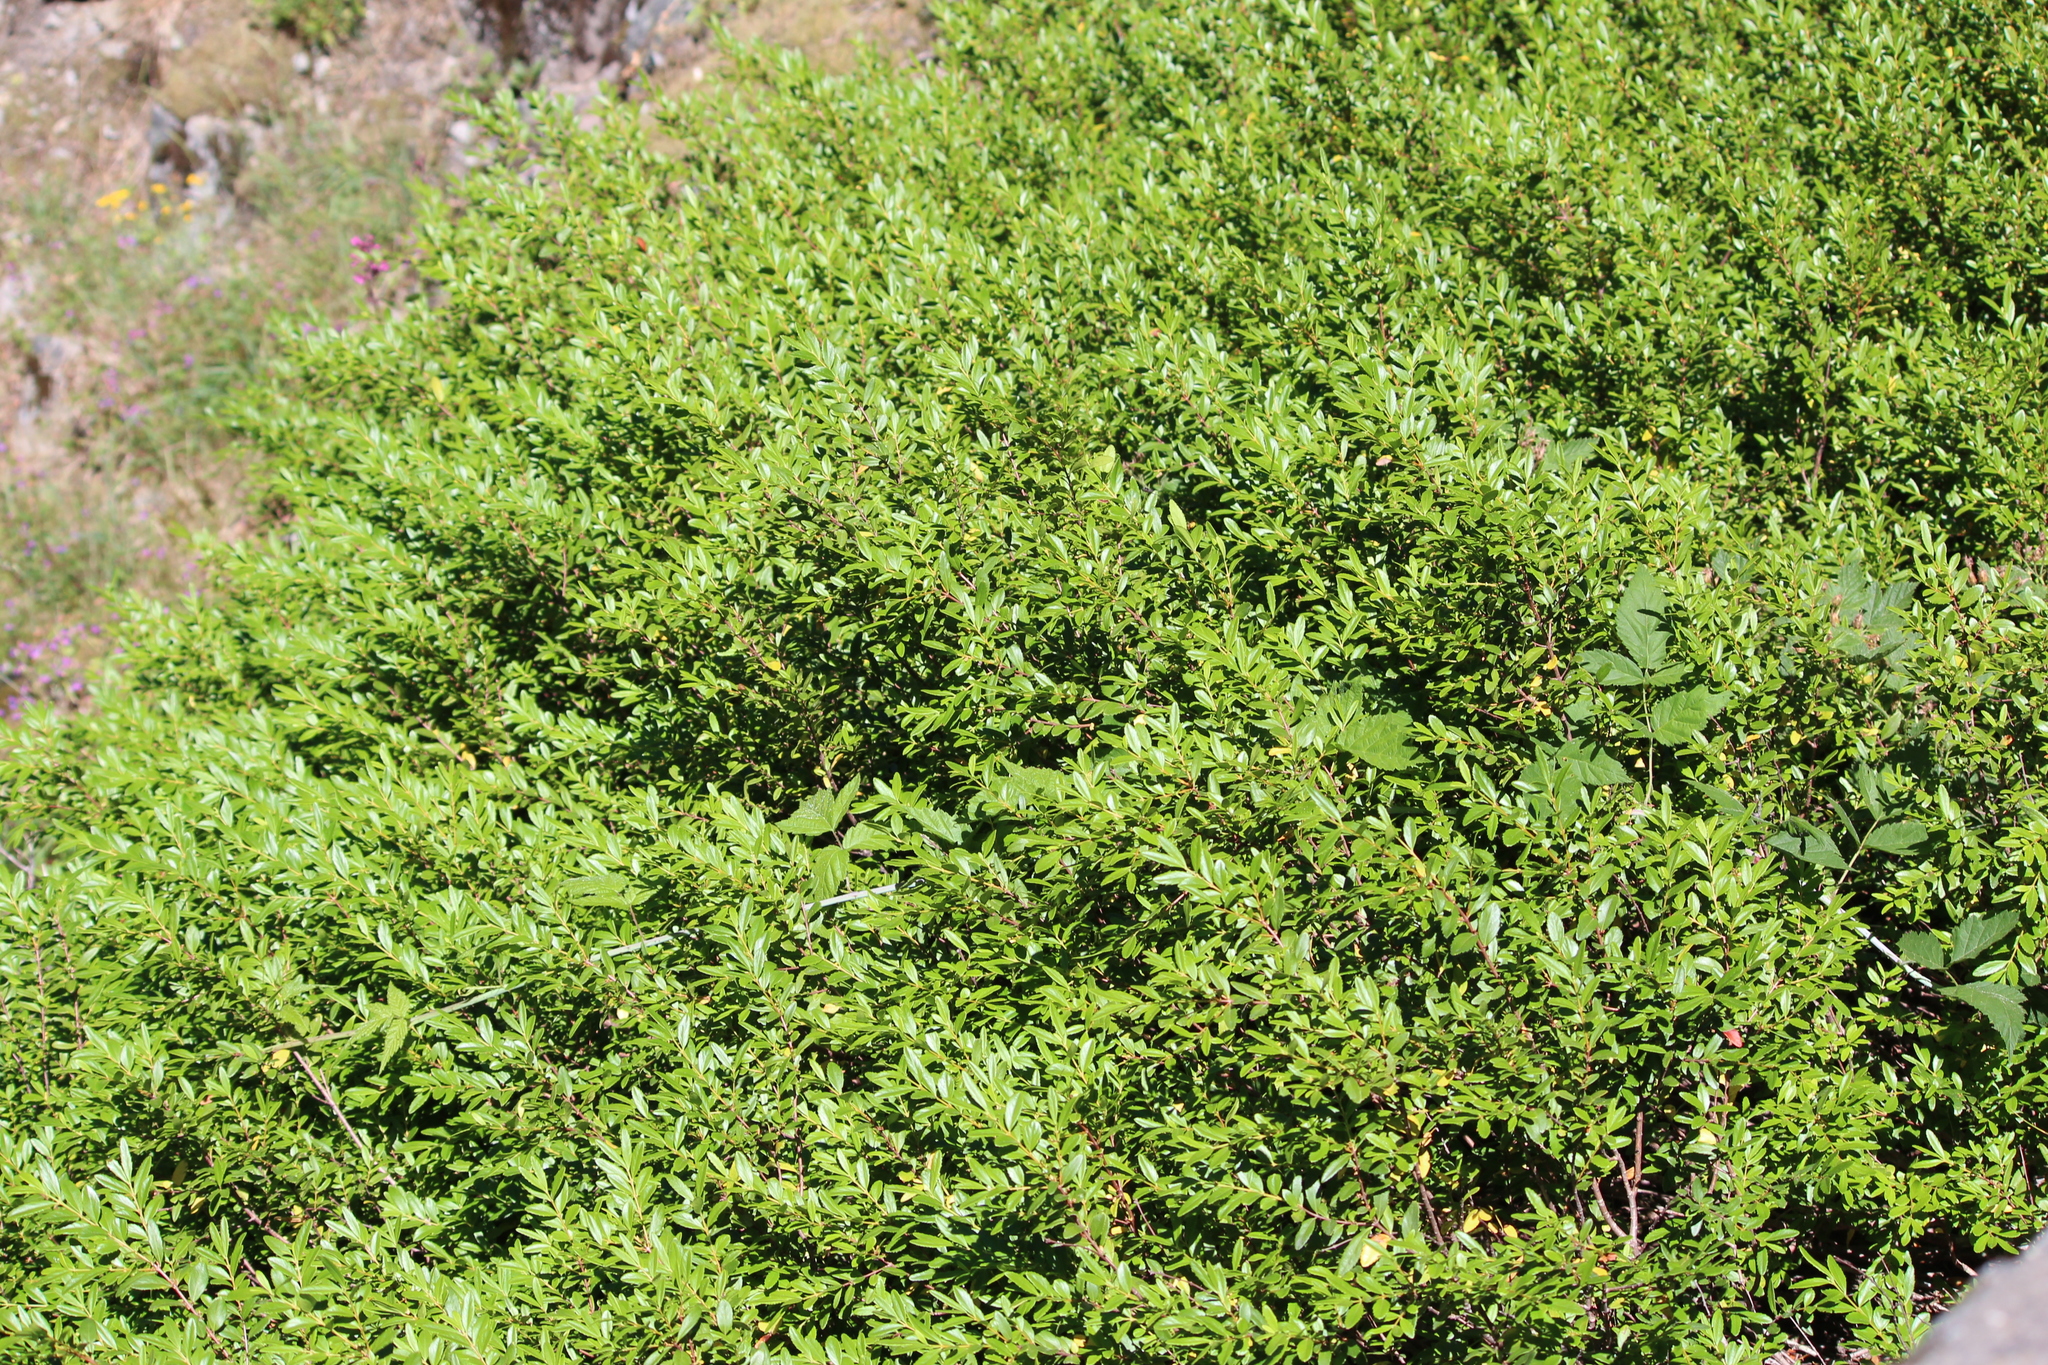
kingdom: Plantae
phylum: Tracheophyta
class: Magnoliopsida
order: Celastrales
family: Celastraceae
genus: Paxistima
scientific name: Paxistima myrsinites
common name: Mountain-lover
